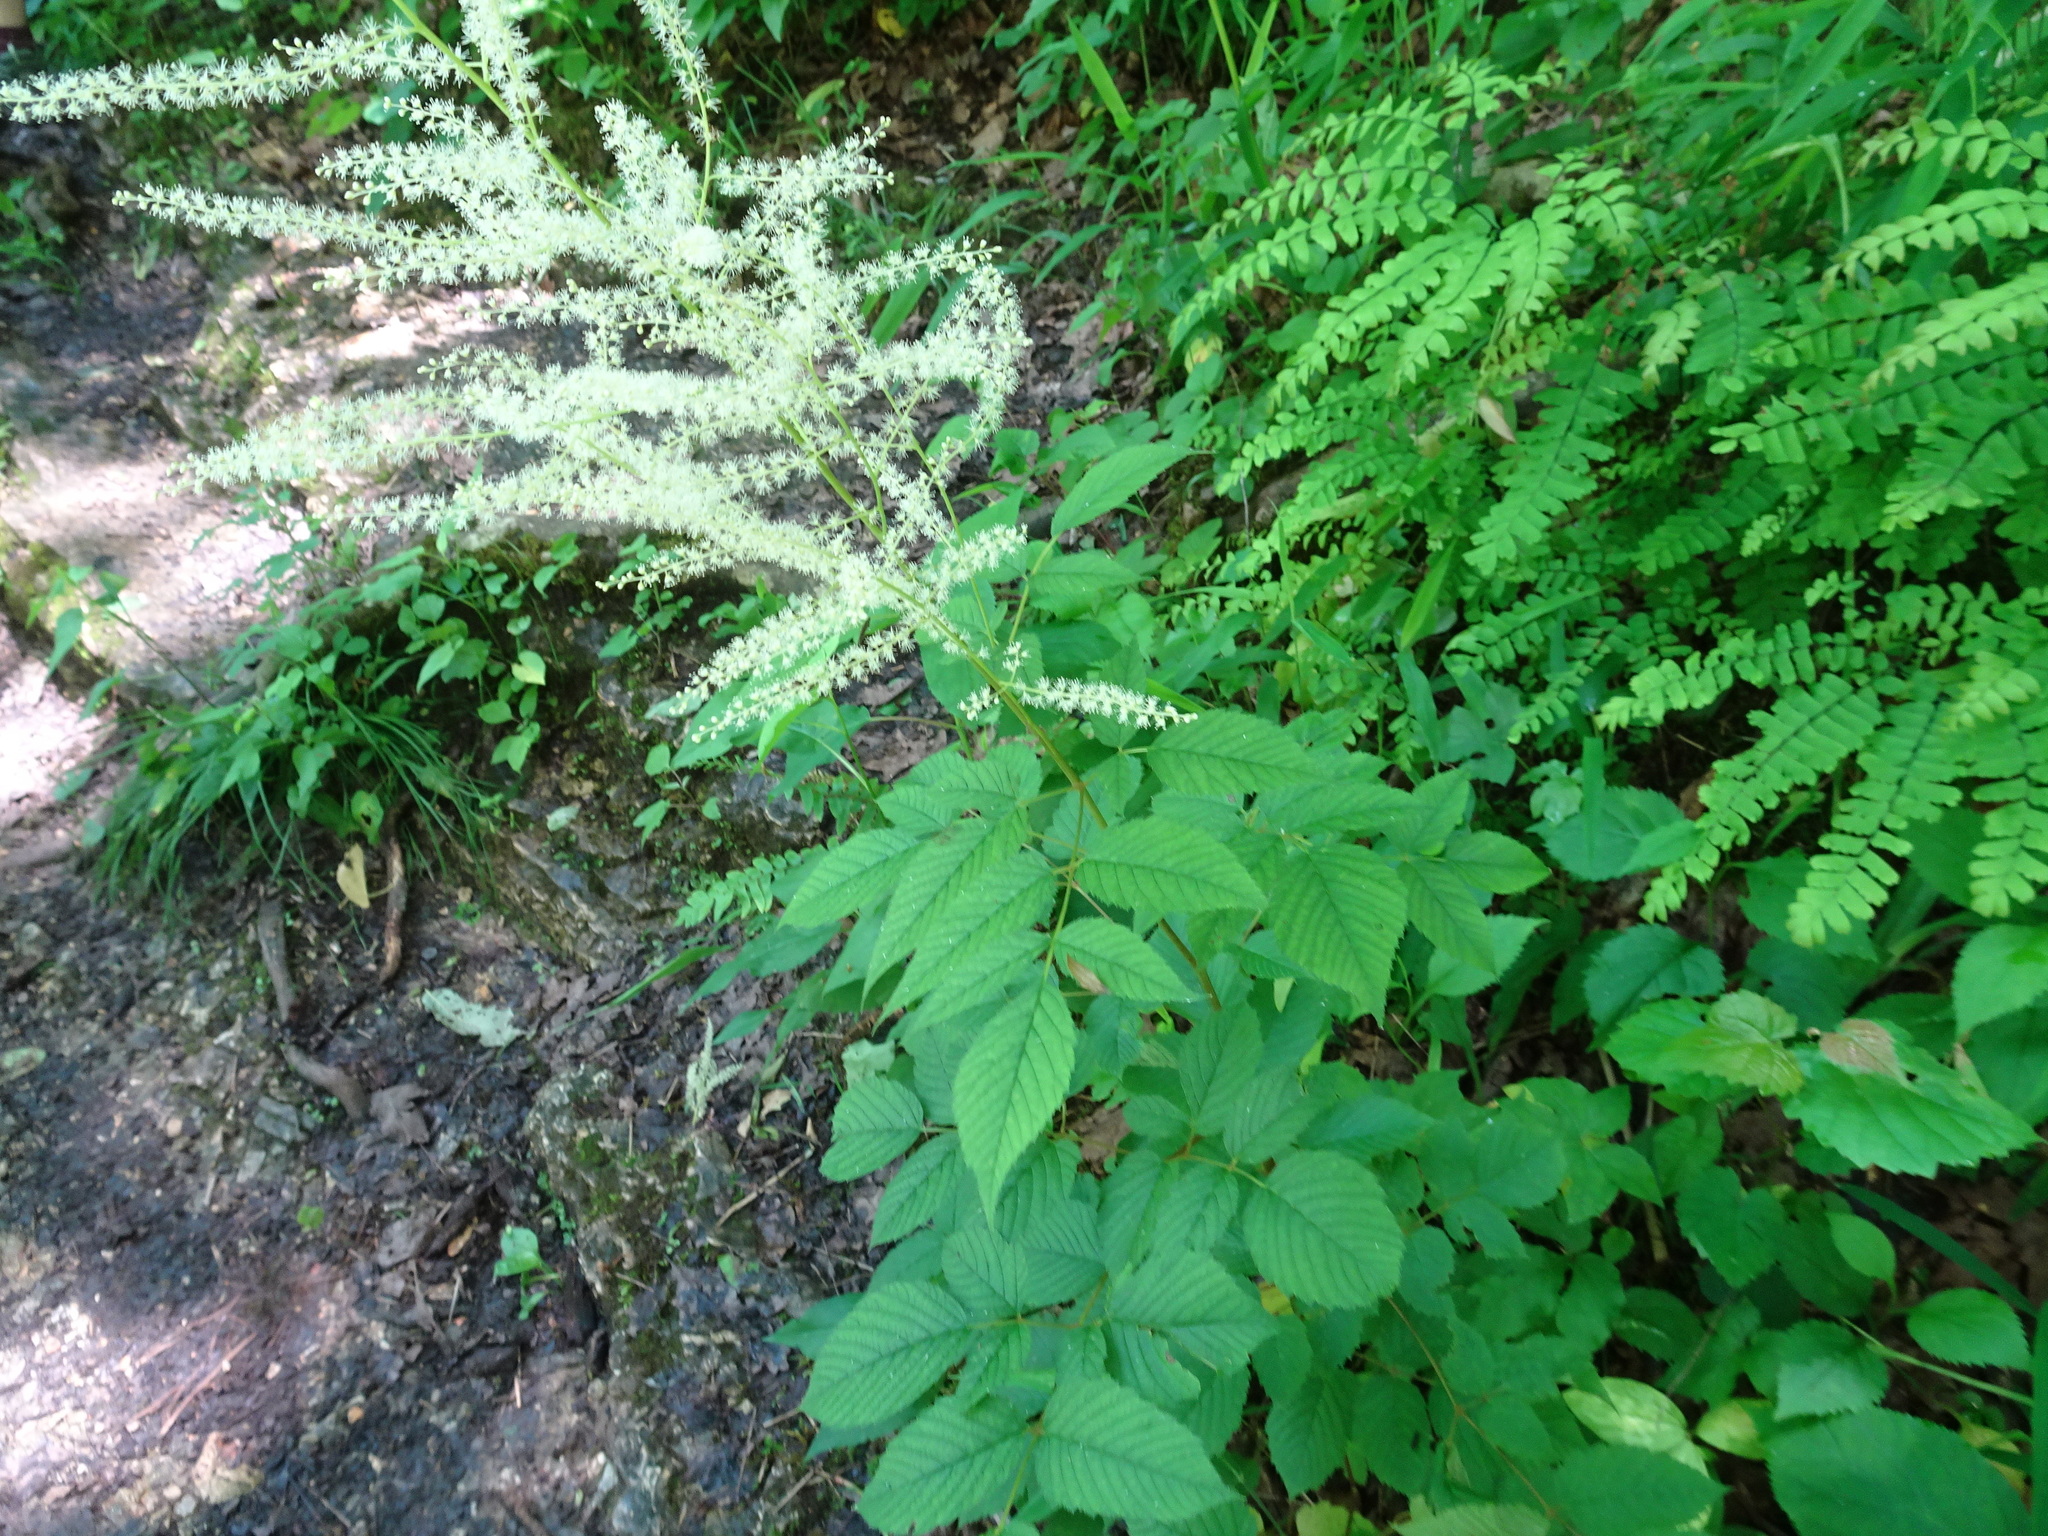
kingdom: Plantae
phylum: Tracheophyta
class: Magnoliopsida
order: Rosales
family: Rosaceae
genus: Aruncus
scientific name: Aruncus dioicus
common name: Buck's-beard
